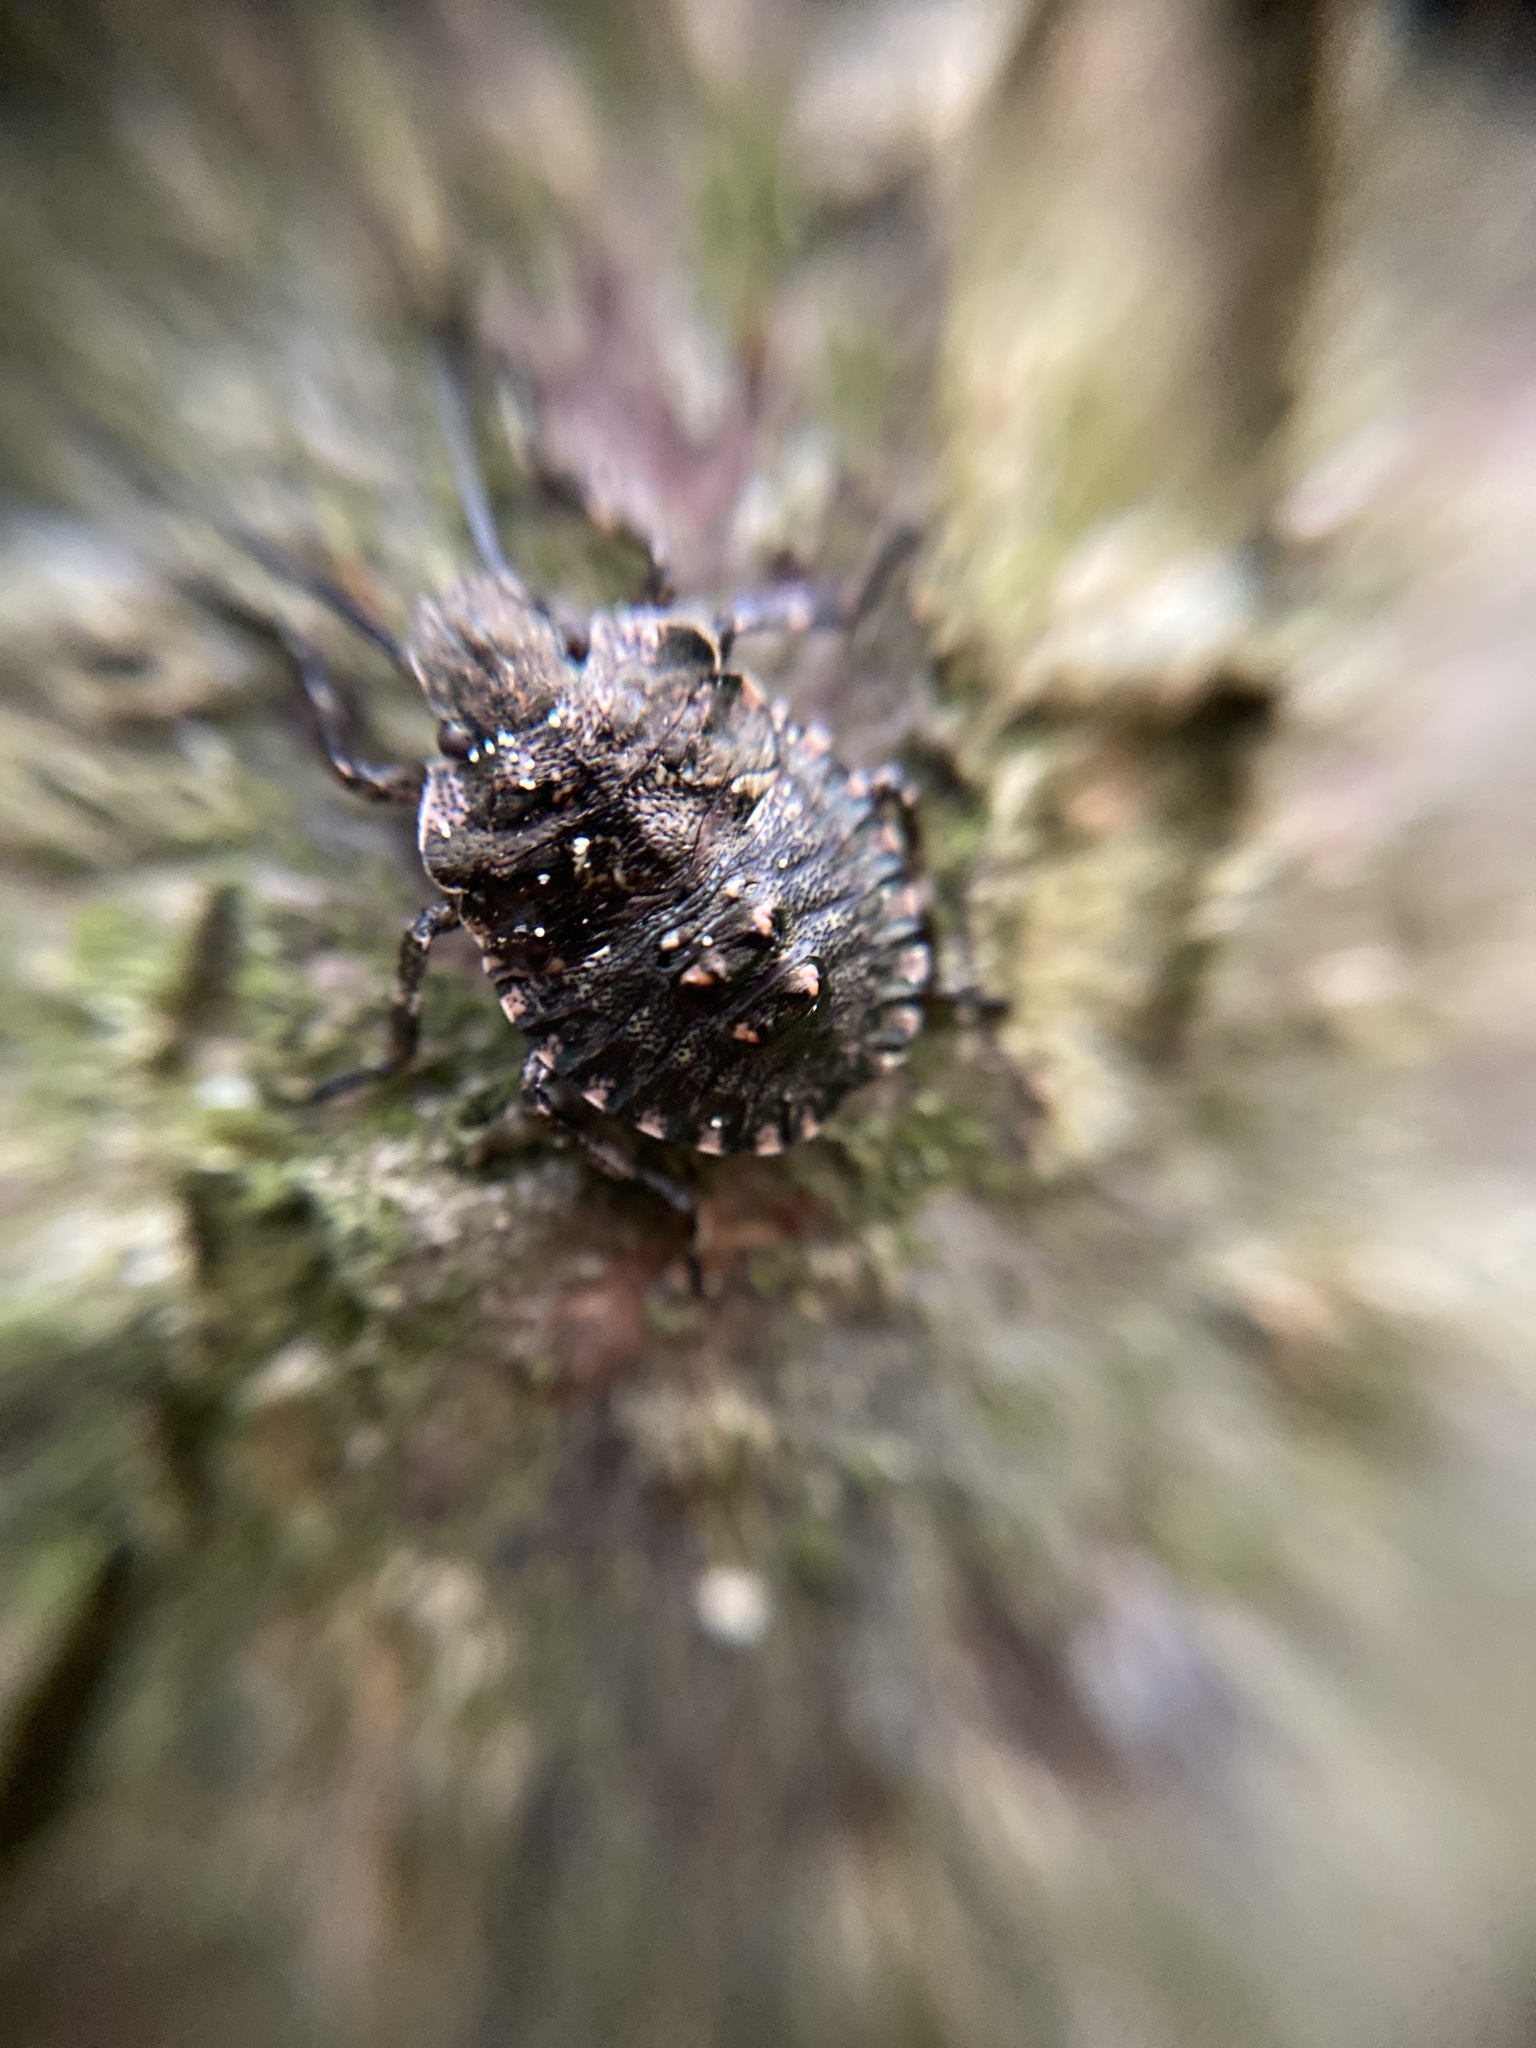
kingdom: Animalia
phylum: Arthropoda
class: Insecta
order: Hemiptera
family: Pentatomidae
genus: Pentatoma
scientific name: Pentatoma rufipes
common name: Forest bug
